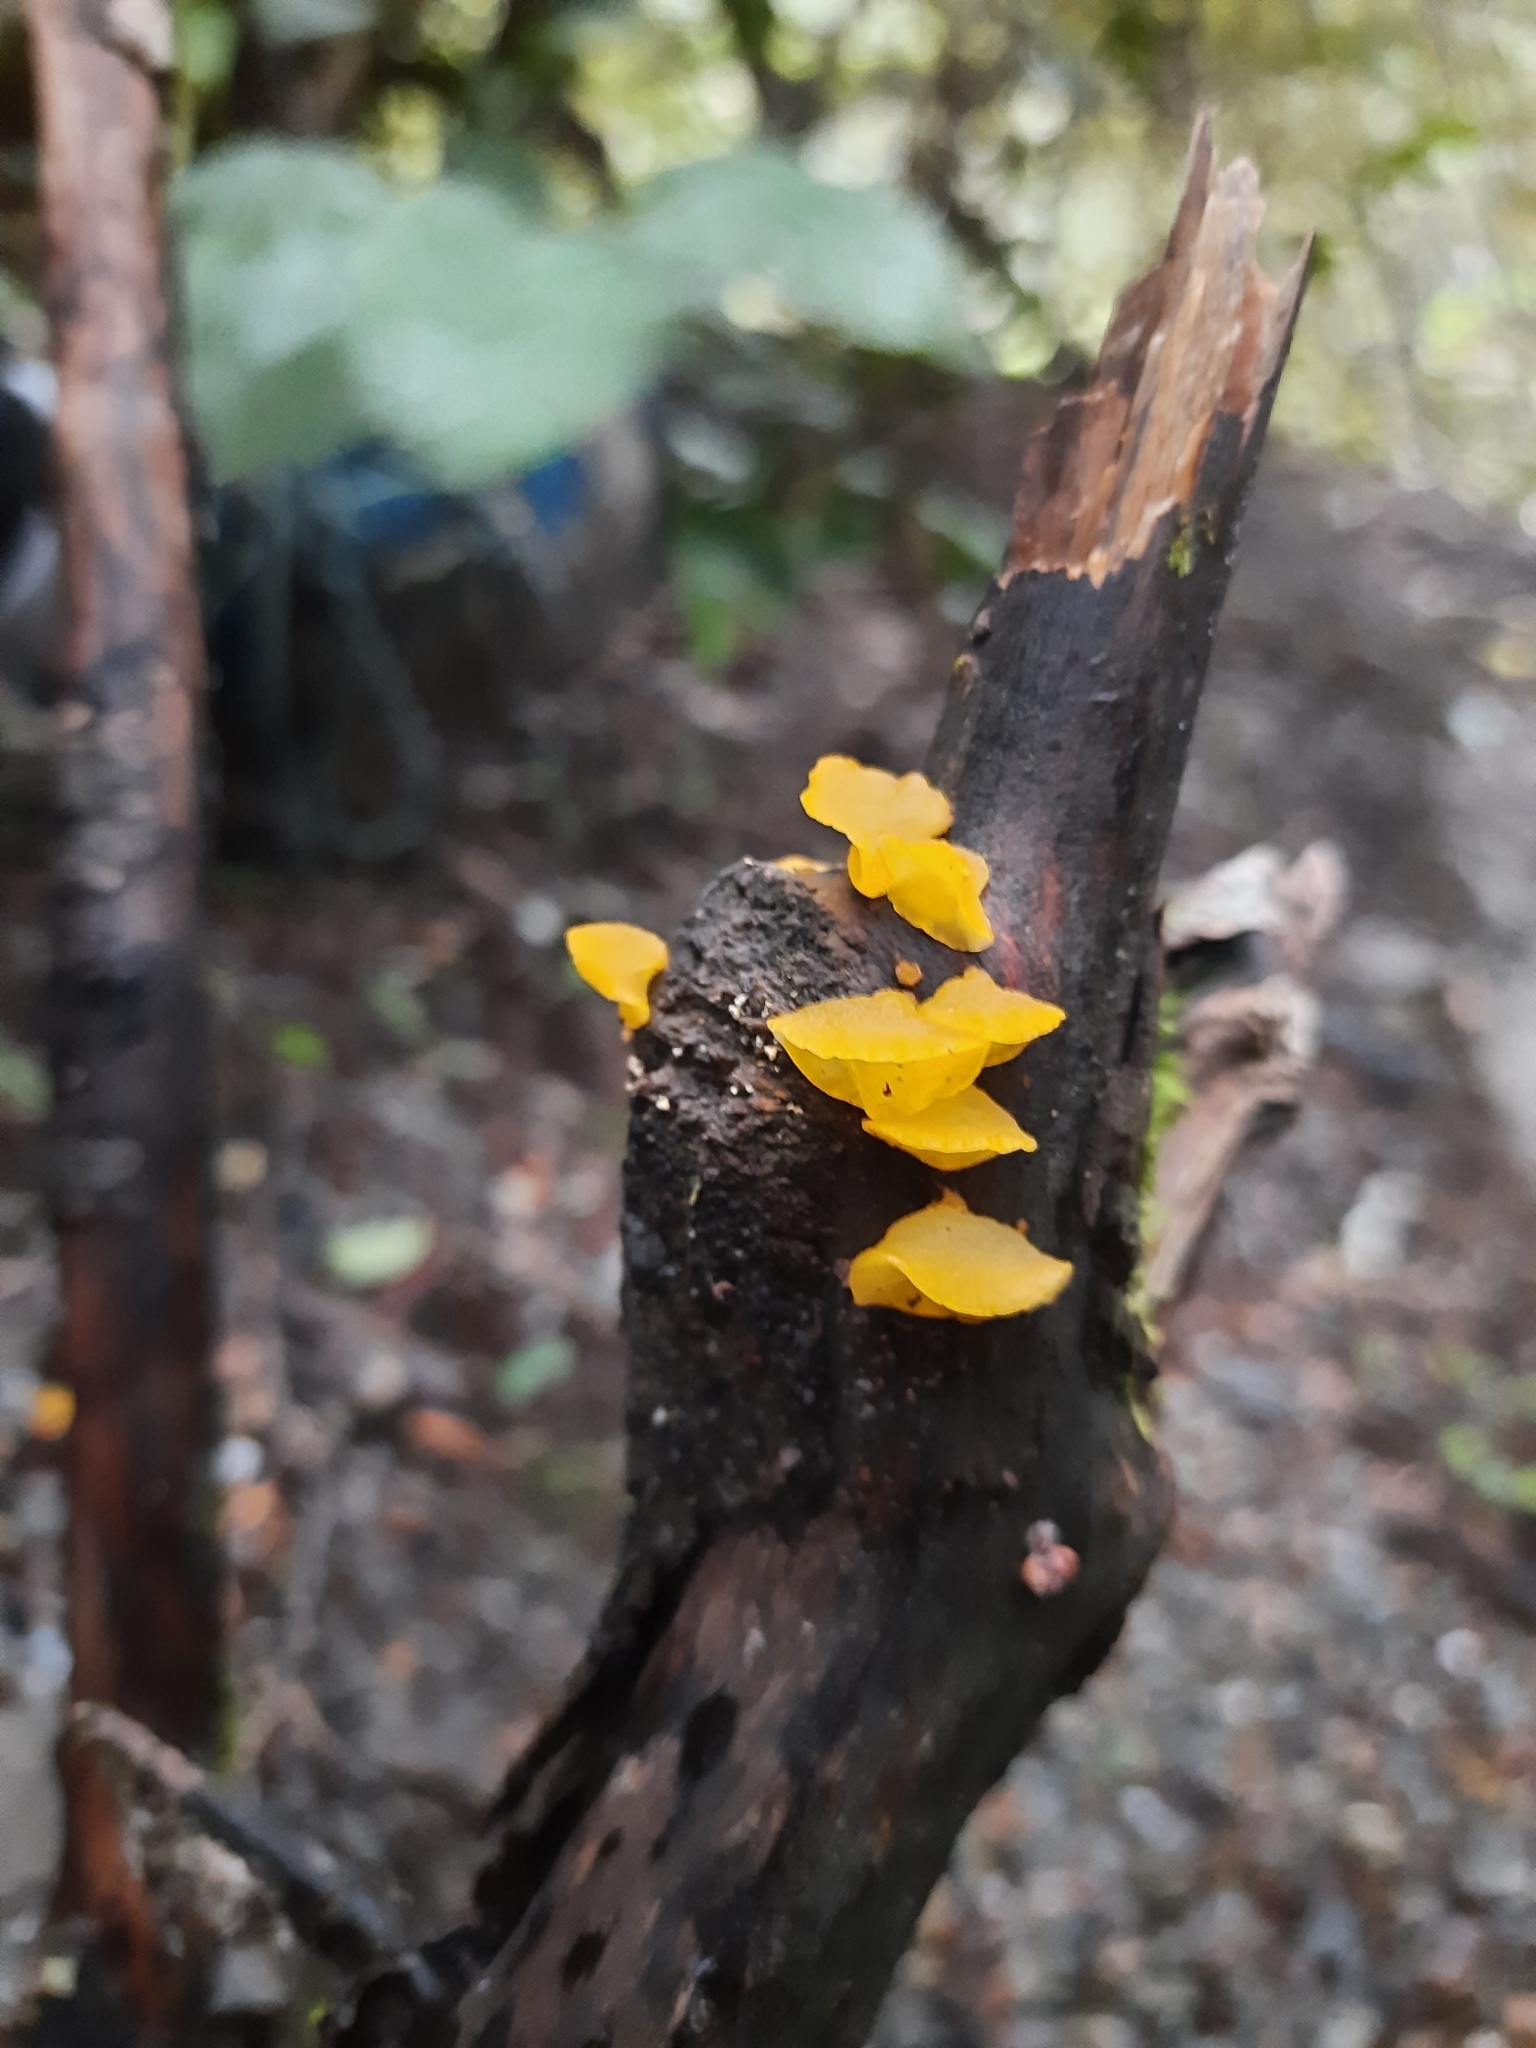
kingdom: Fungi
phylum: Basidiomycota
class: Dacrymycetes
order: Dacrymycetales
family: Dacrymycetaceae
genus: Heterotextus
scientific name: Heterotextus miltinus
